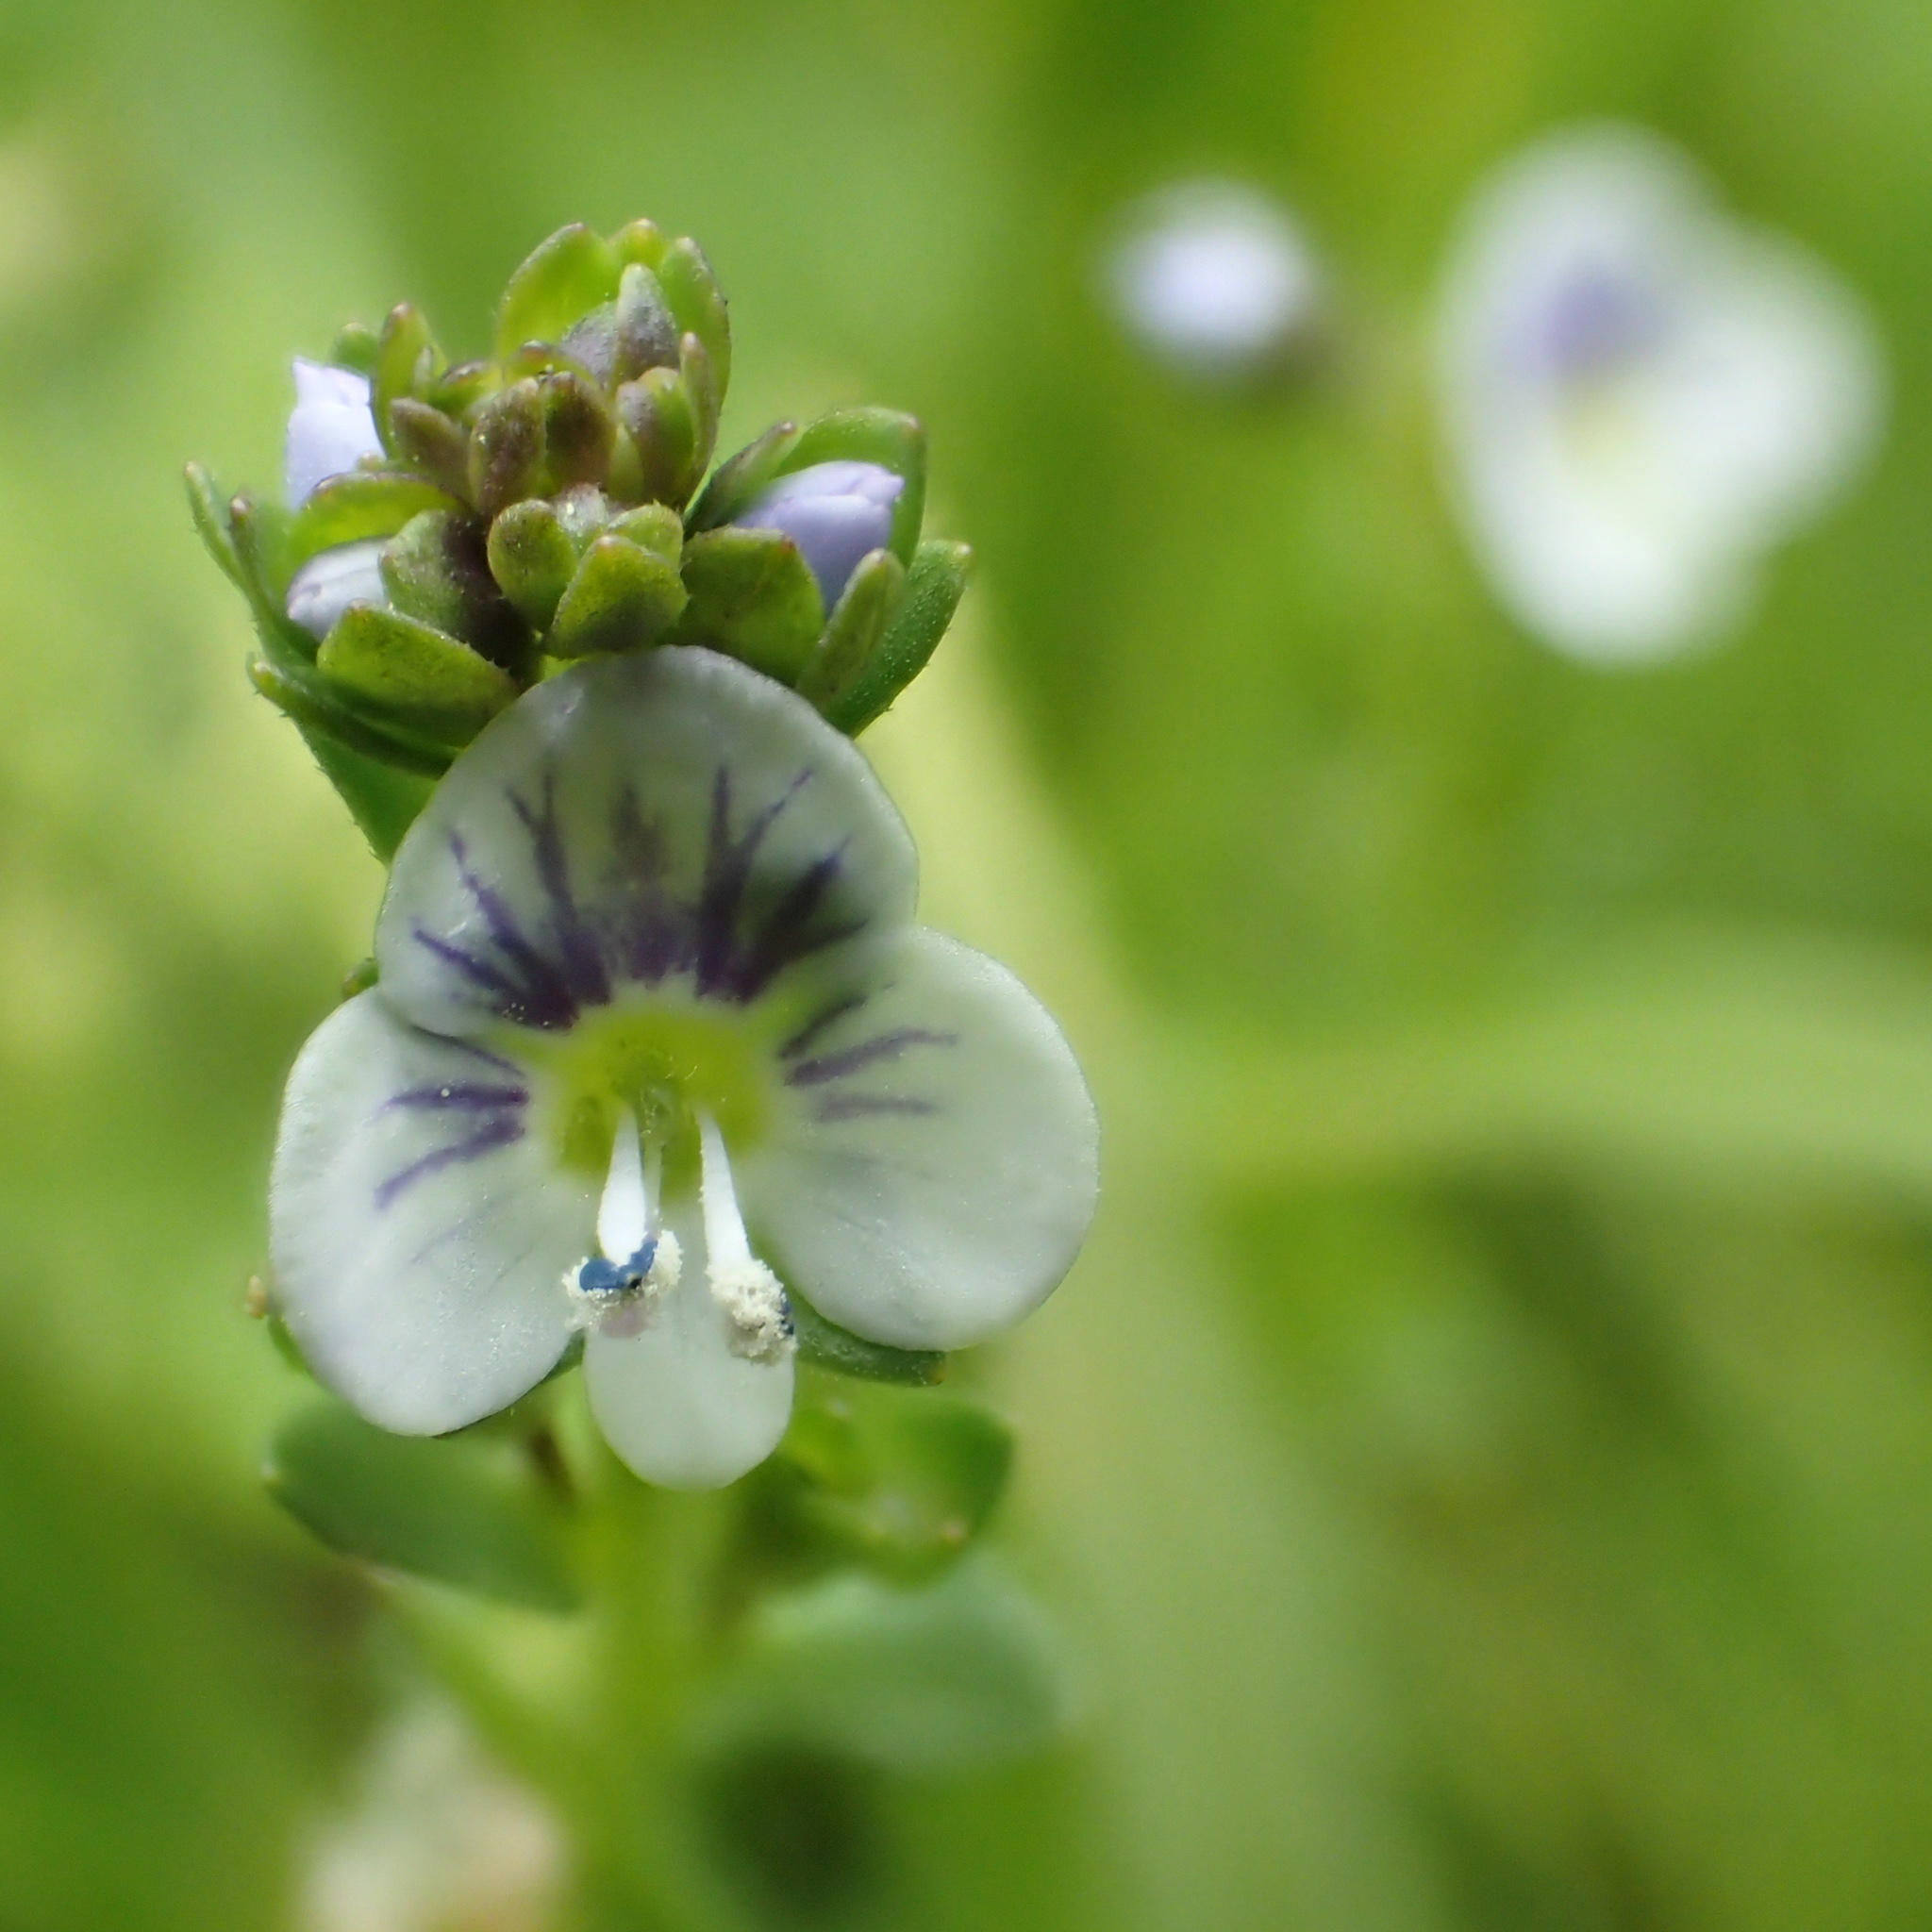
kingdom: Plantae
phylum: Tracheophyta
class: Magnoliopsida
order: Lamiales
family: Plantaginaceae
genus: Veronica
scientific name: Veronica serpyllifolia
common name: Thyme-leaved speedwell
